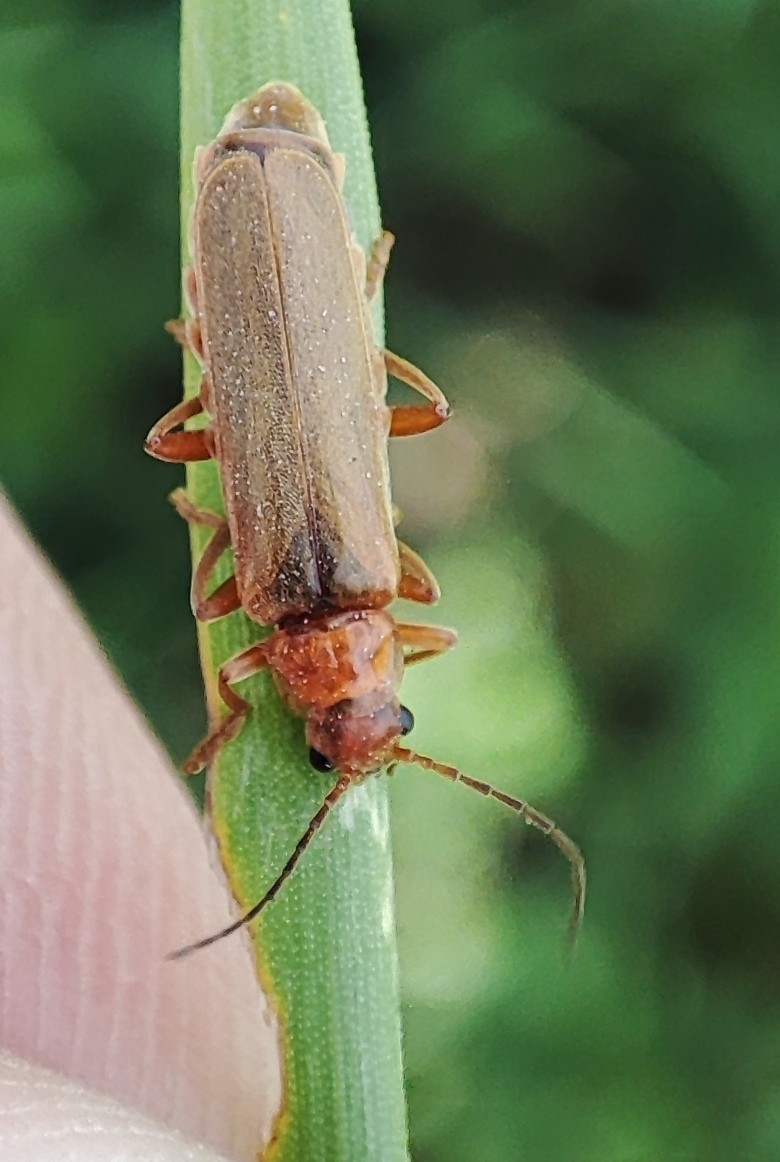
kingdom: Animalia
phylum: Arthropoda
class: Insecta
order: Coleoptera
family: Cantharidae
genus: Cantharis
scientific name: Cantharis rufa
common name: Red-spotted soldier beetle
